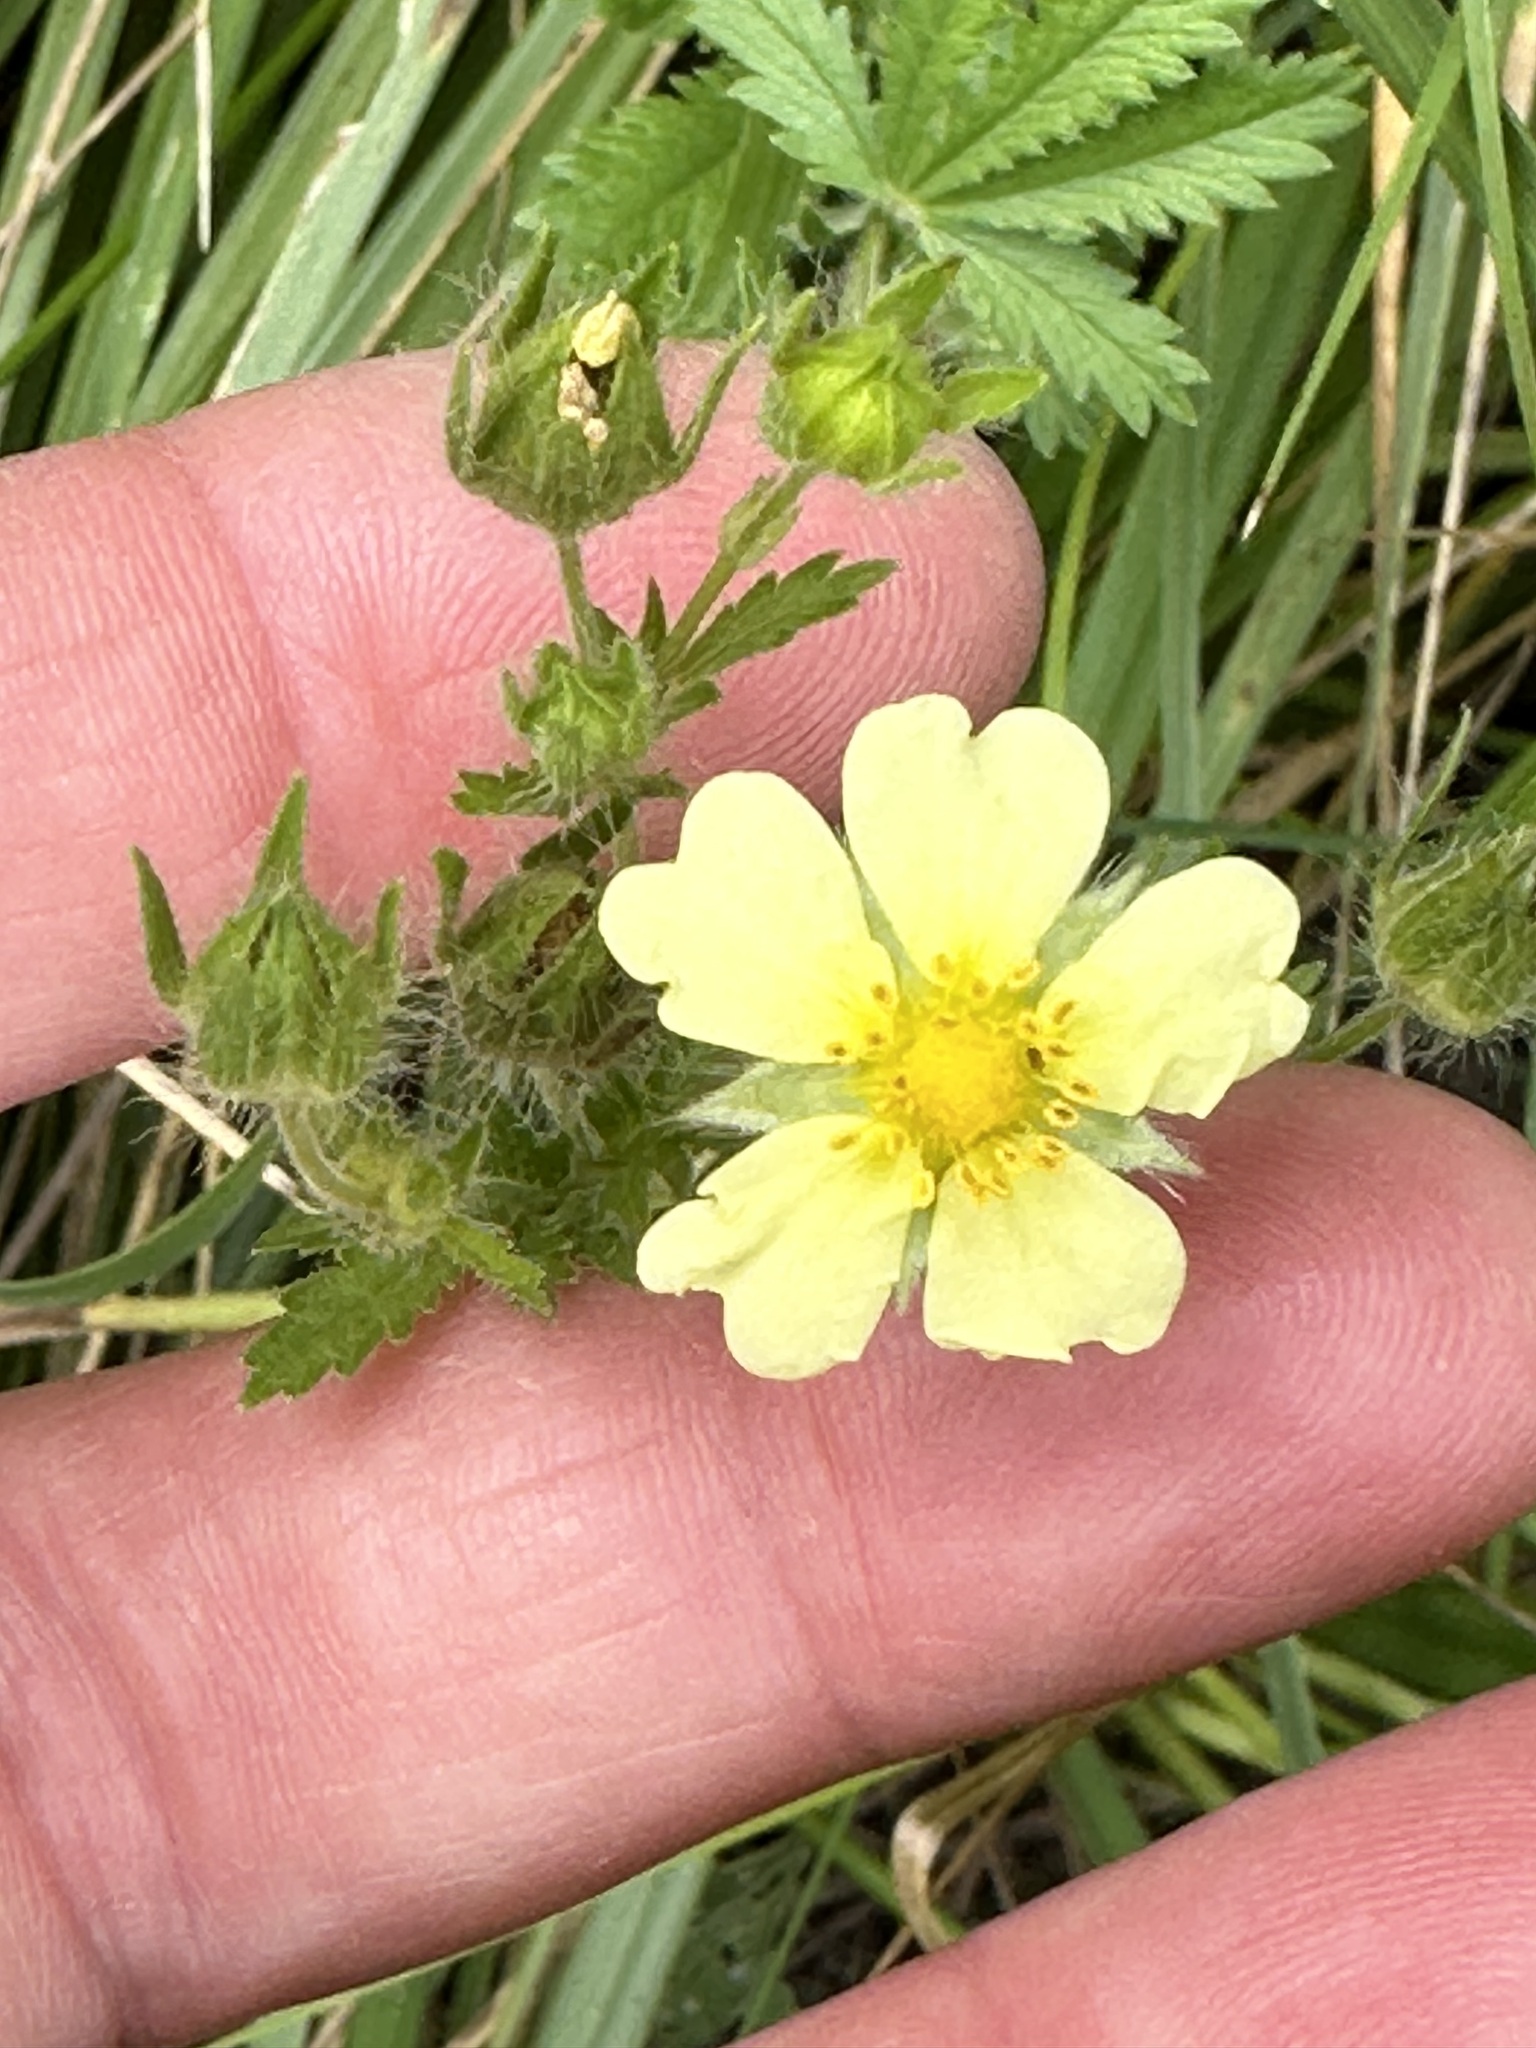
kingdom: Plantae
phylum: Tracheophyta
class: Magnoliopsida
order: Rosales
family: Rosaceae
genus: Potentilla
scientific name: Potentilla recta
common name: Sulphur cinquefoil
